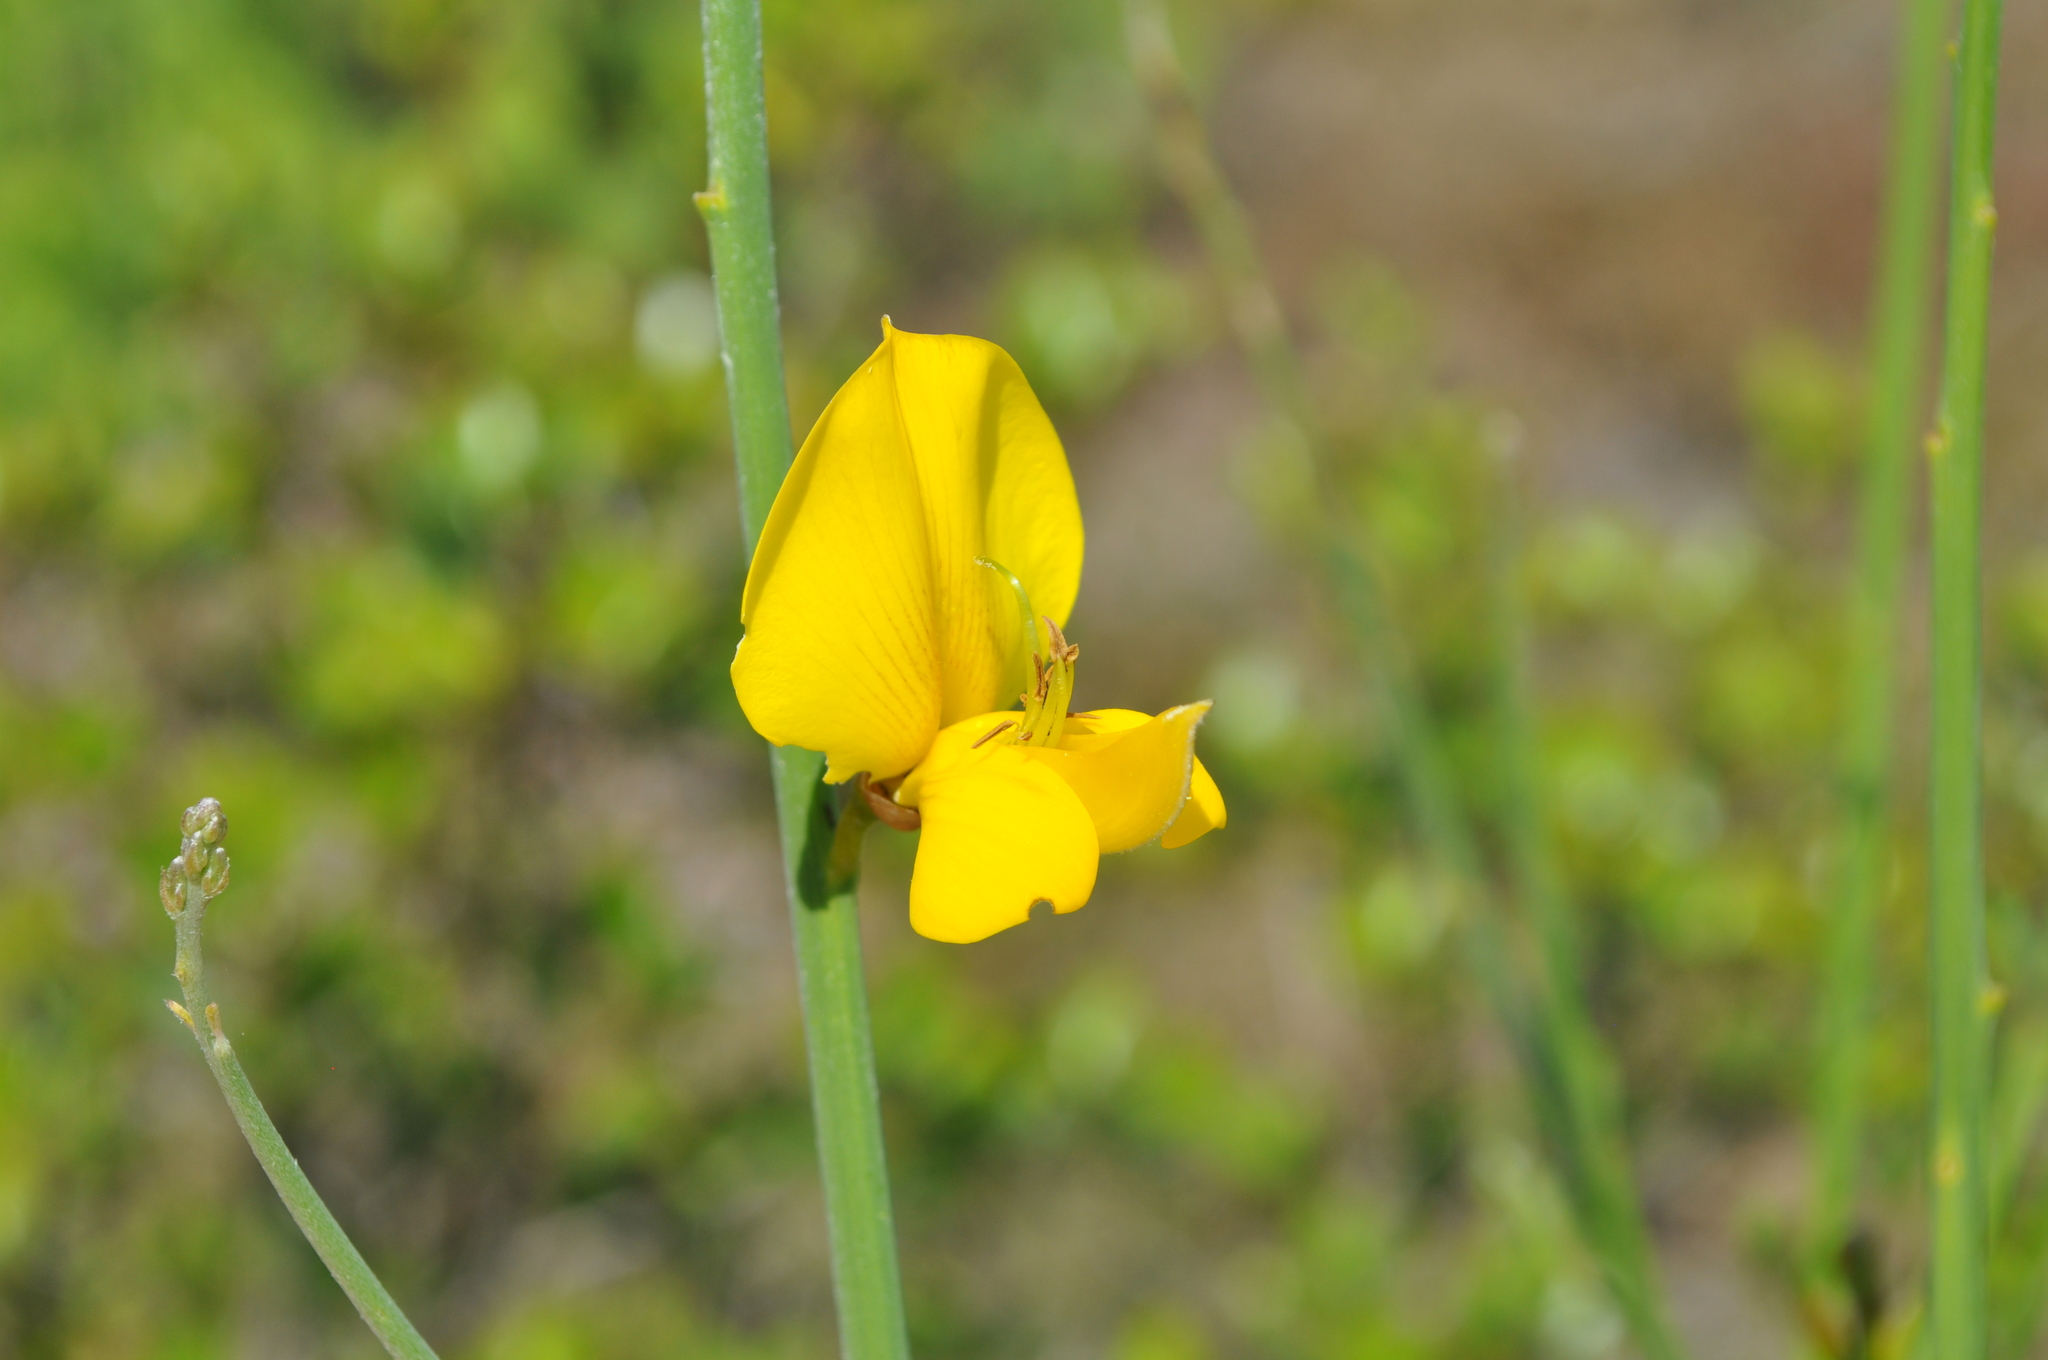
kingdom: Plantae
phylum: Tracheophyta
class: Magnoliopsida
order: Fabales
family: Fabaceae
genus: Spartium
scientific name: Spartium junceum
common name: Spanish broom
